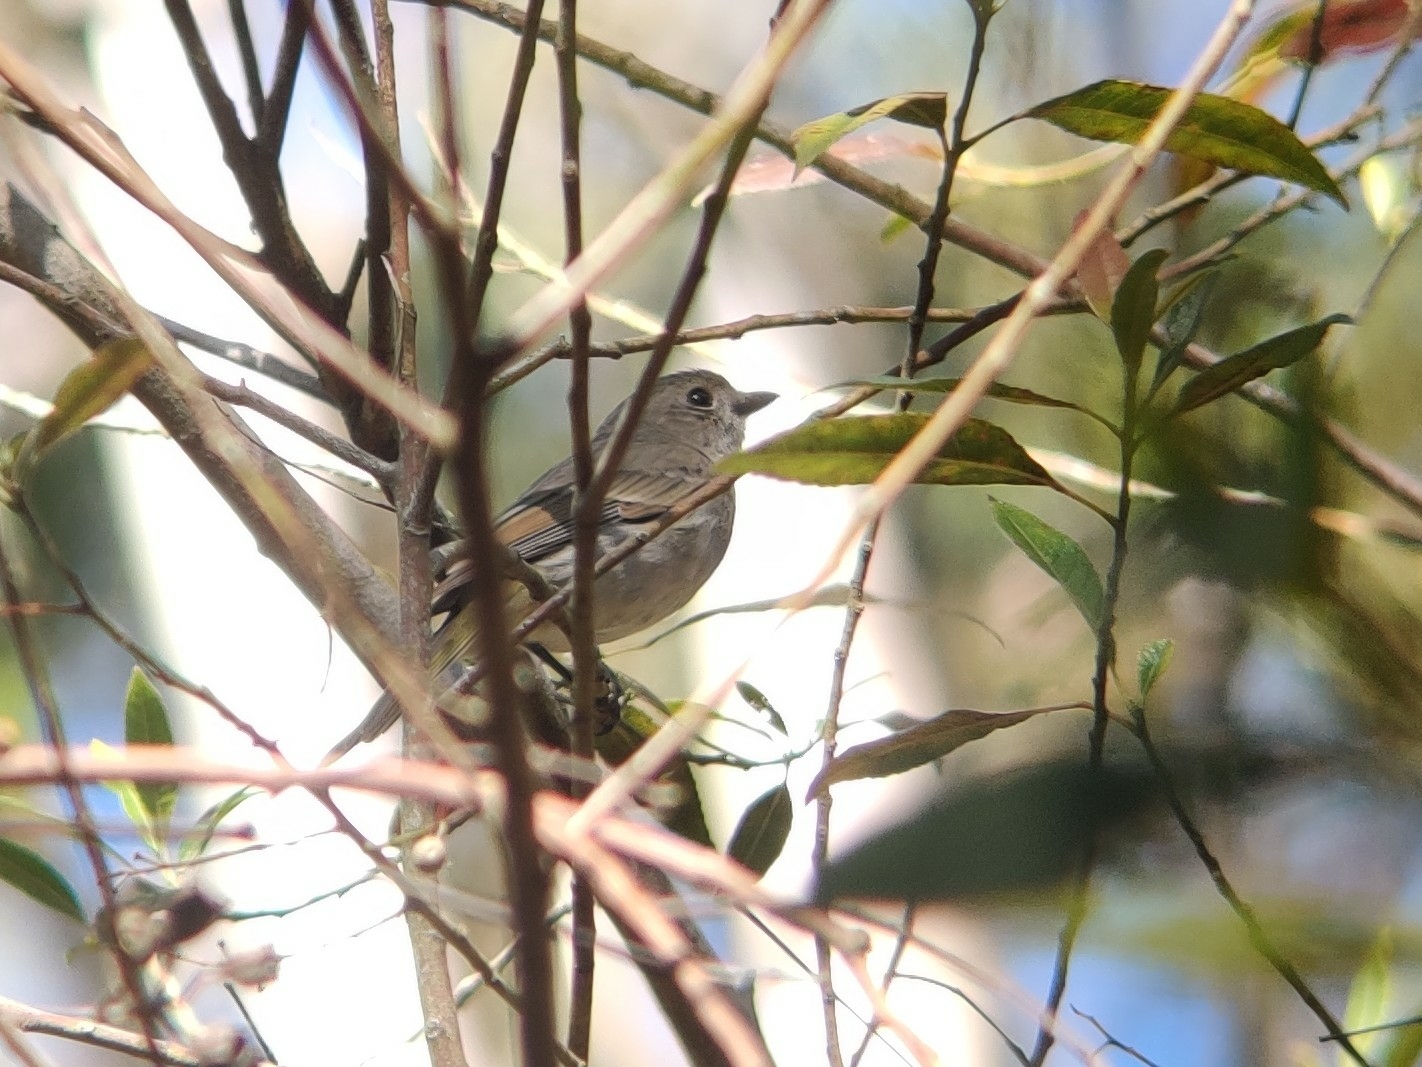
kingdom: Animalia
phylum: Chordata
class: Aves
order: Passeriformes
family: Pachycephalidae
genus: Pachycephala
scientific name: Pachycephala pectoralis
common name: Australian golden whistler
